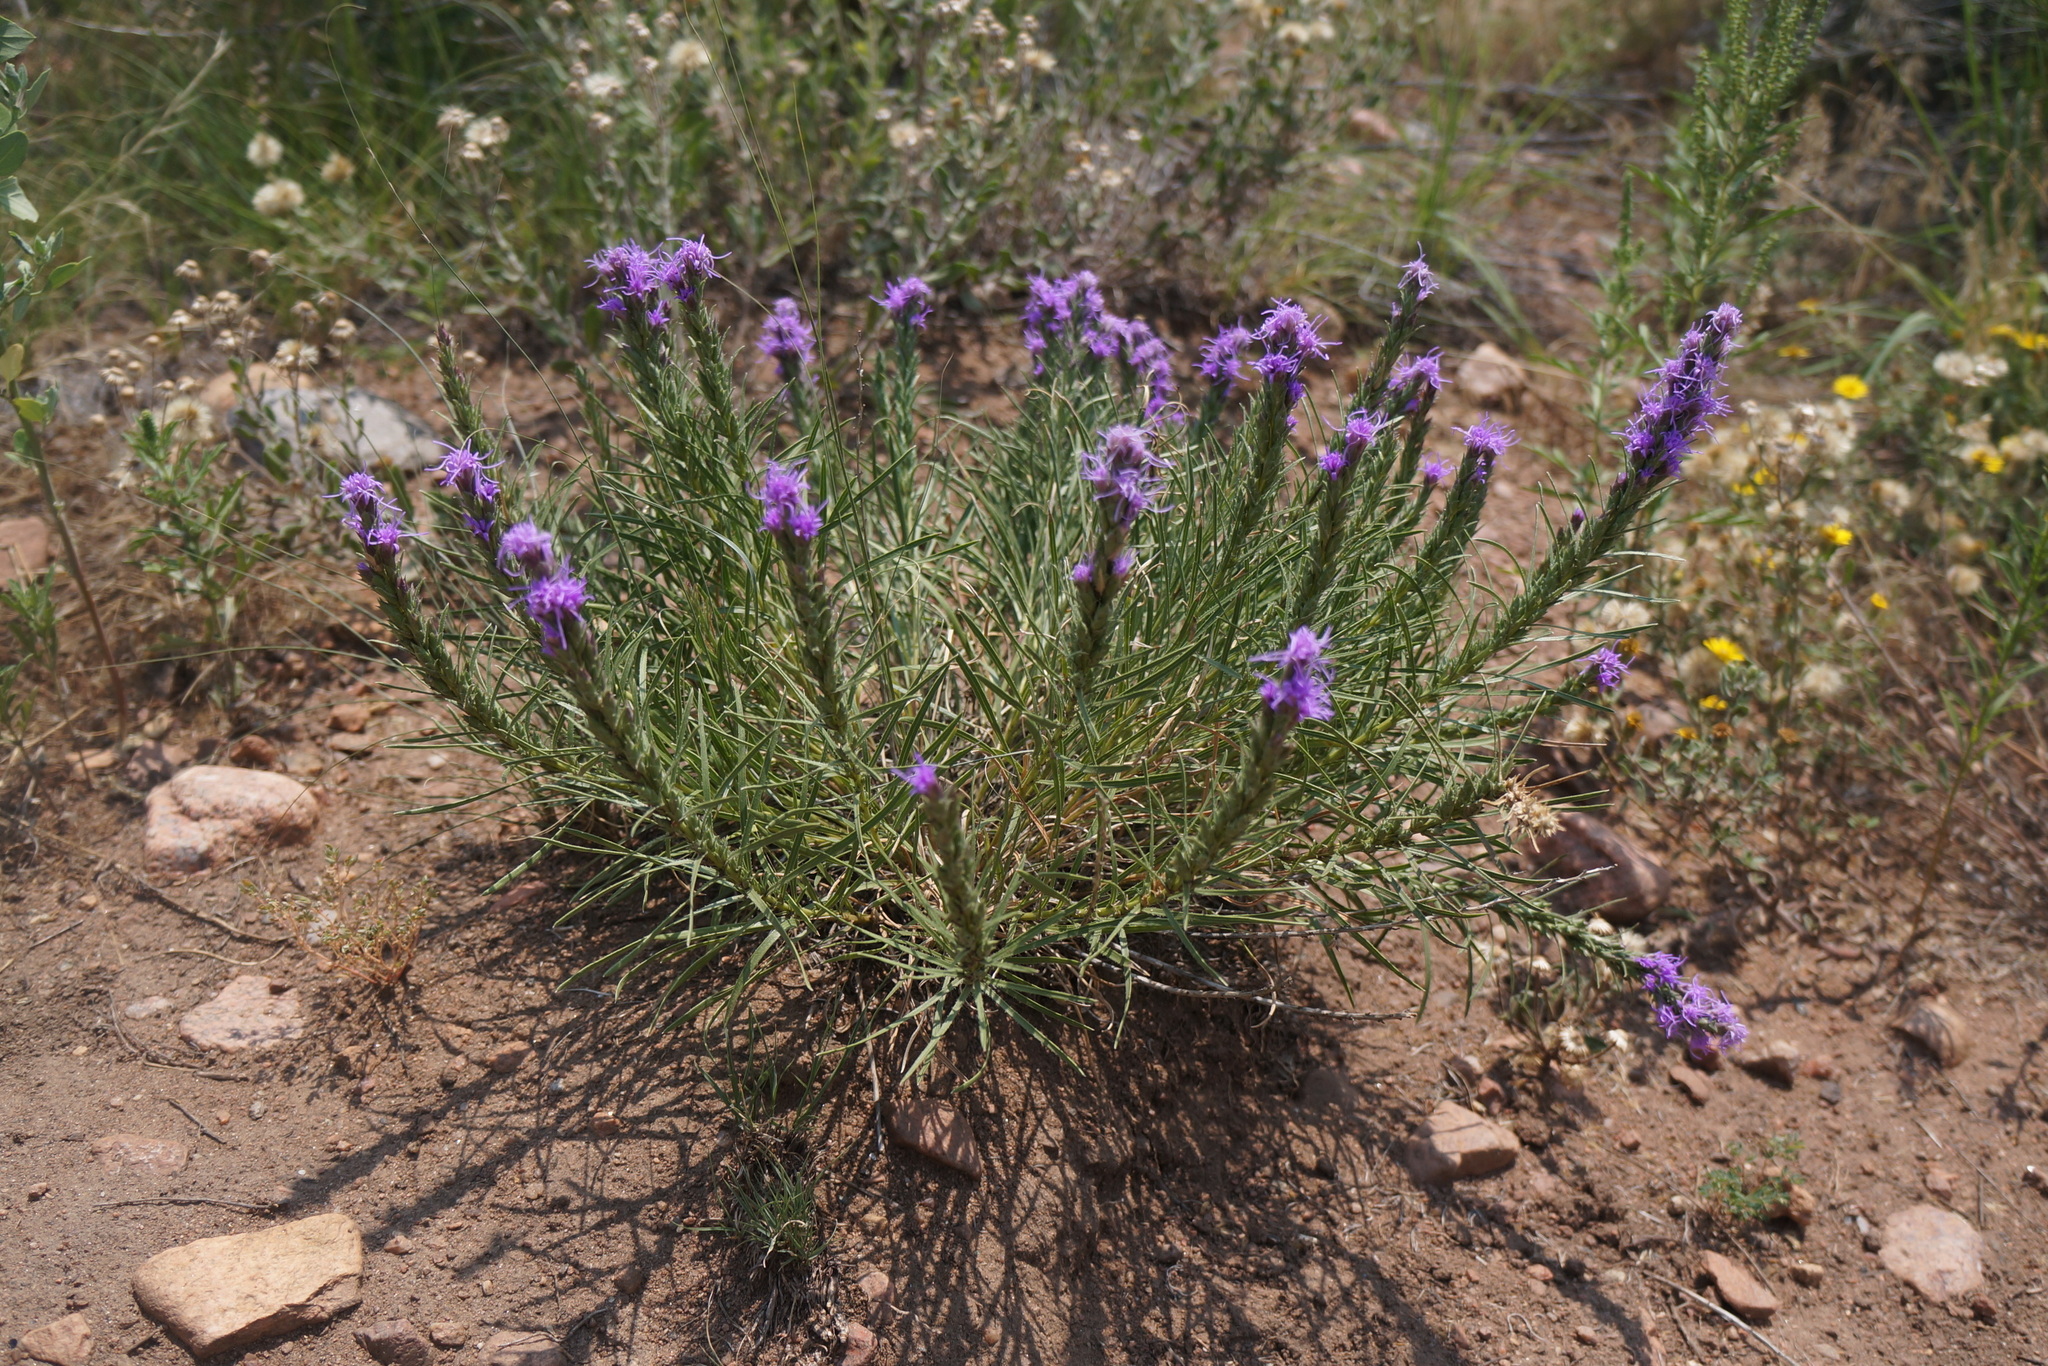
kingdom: Plantae
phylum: Tracheophyta
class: Magnoliopsida
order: Asterales
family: Asteraceae
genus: Liatris
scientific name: Liatris punctata
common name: Dotted gayfeather
